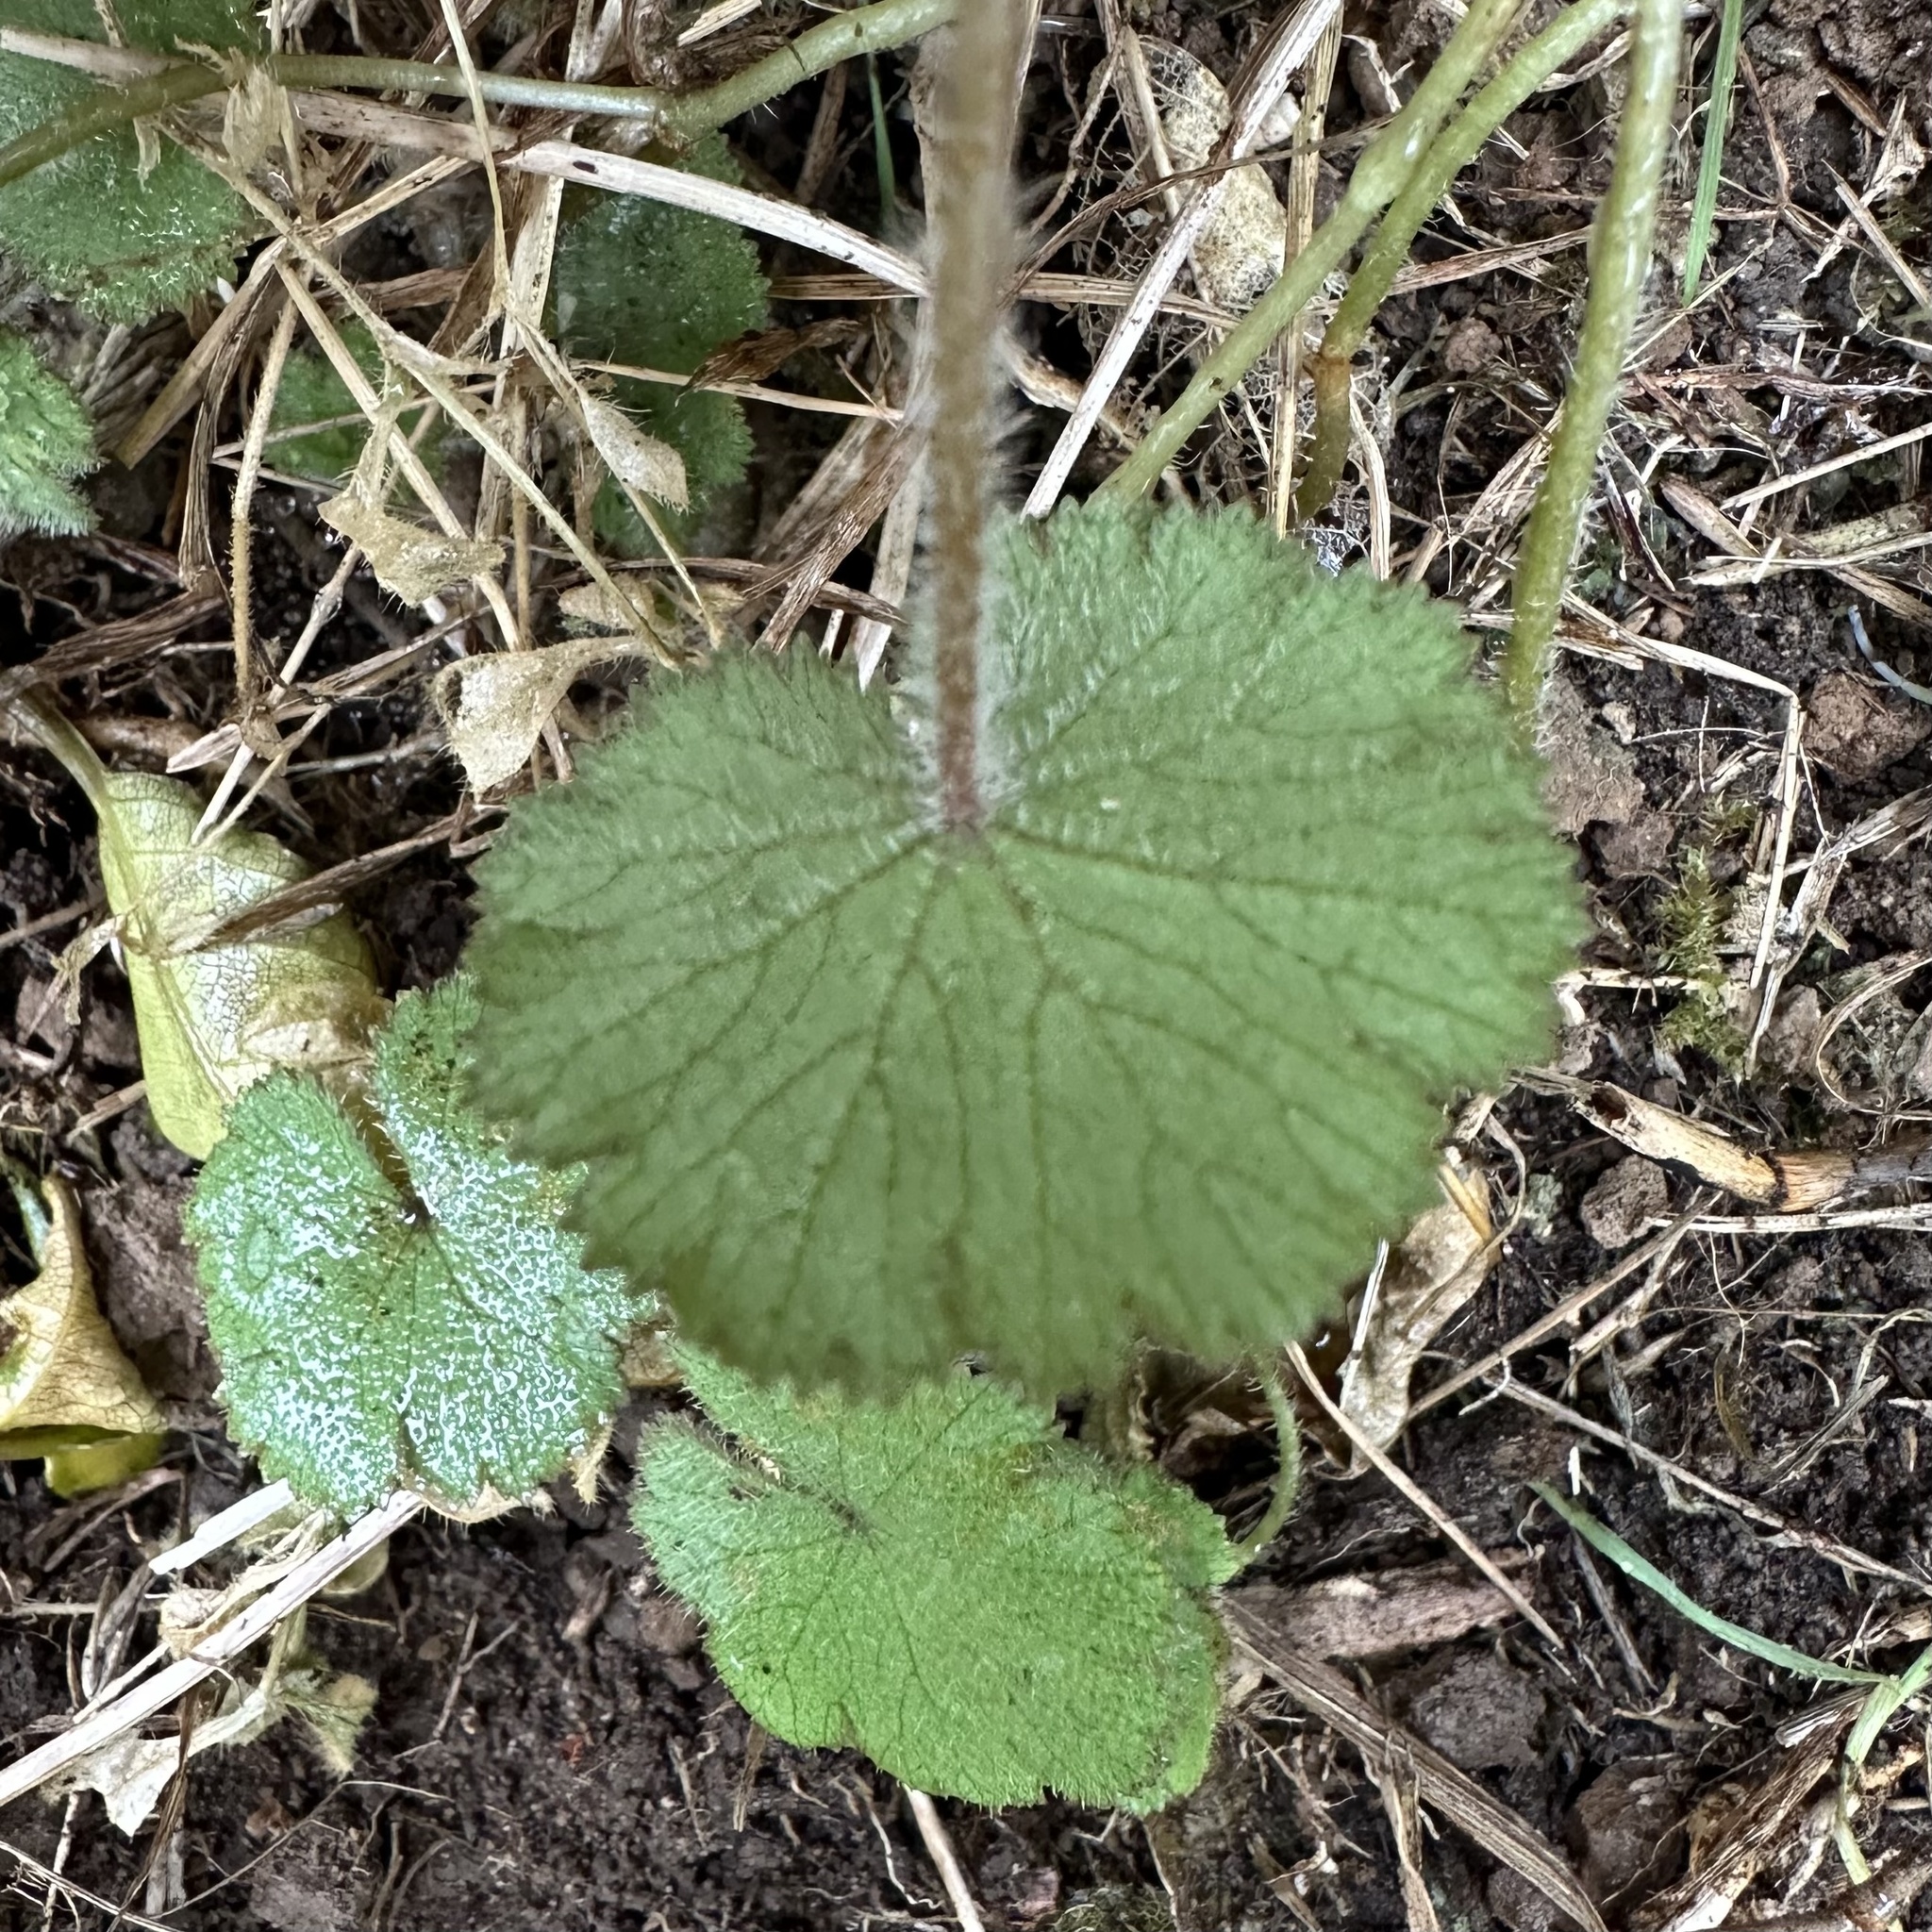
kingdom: Plantae
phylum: Tracheophyta
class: Magnoliopsida
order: Apiales
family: Araliaceae
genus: Hydrocotyle
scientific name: Hydrocotyle moschata
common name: Hairy pennywort
